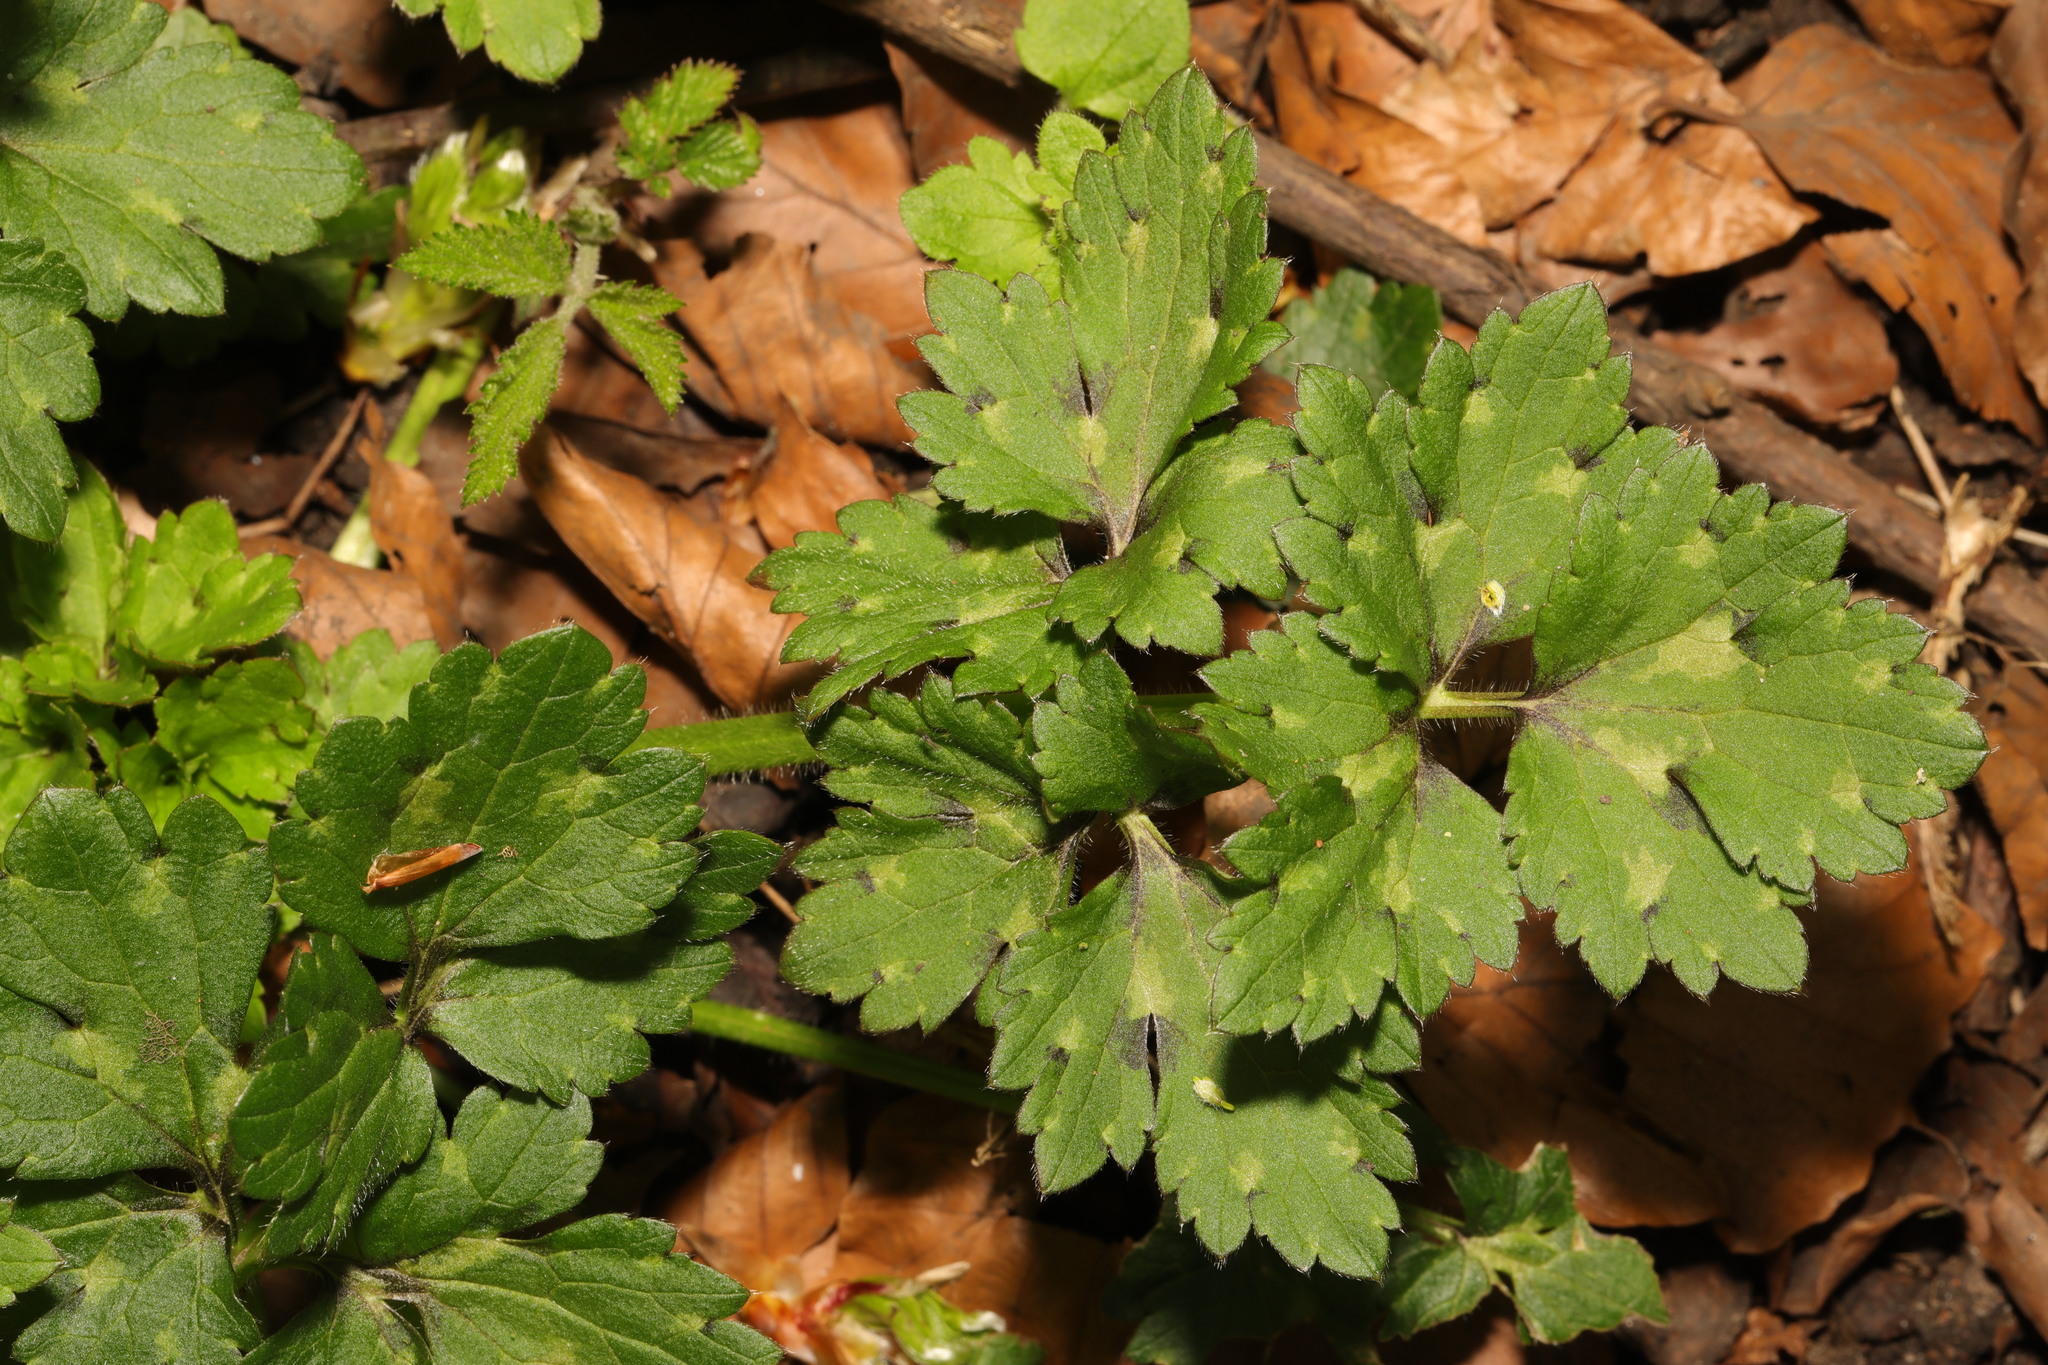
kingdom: Plantae
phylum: Tracheophyta
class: Magnoliopsida
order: Ranunculales
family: Ranunculaceae
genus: Ranunculus
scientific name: Ranunculus repens
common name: Creeping buttercup
